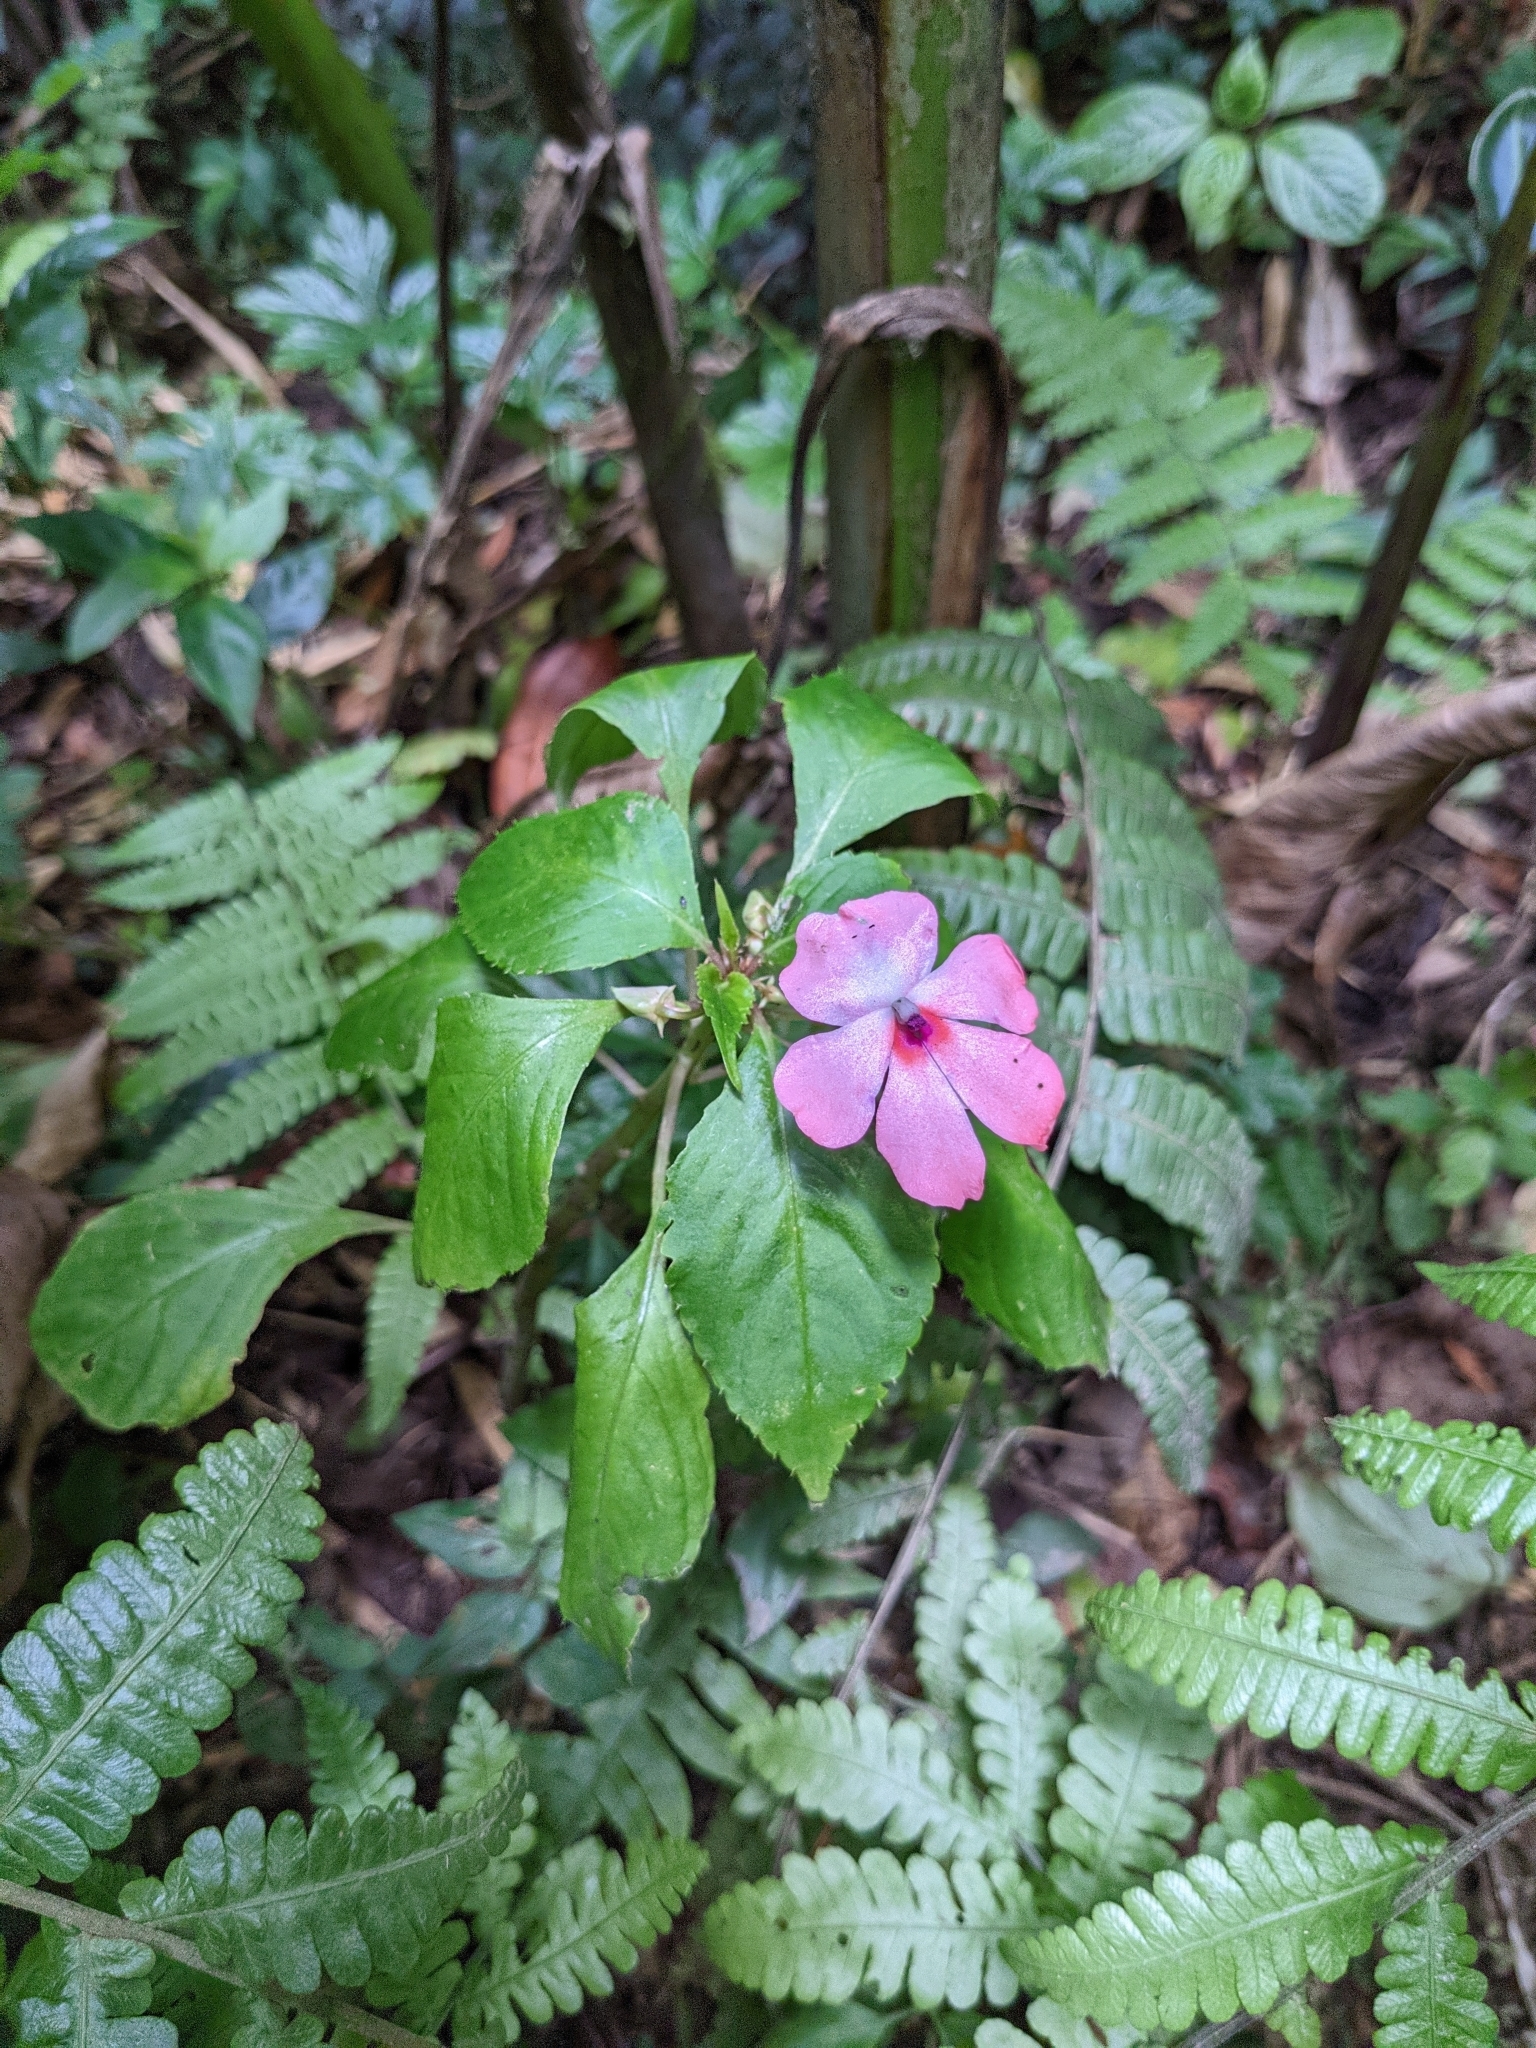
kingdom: Plantae
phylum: Tracheophyta
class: Magnoliopsida
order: Ericales
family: Balsaminaceae
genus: Impatiens
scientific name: Impatiens walleriana
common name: Buzzy lizzy
